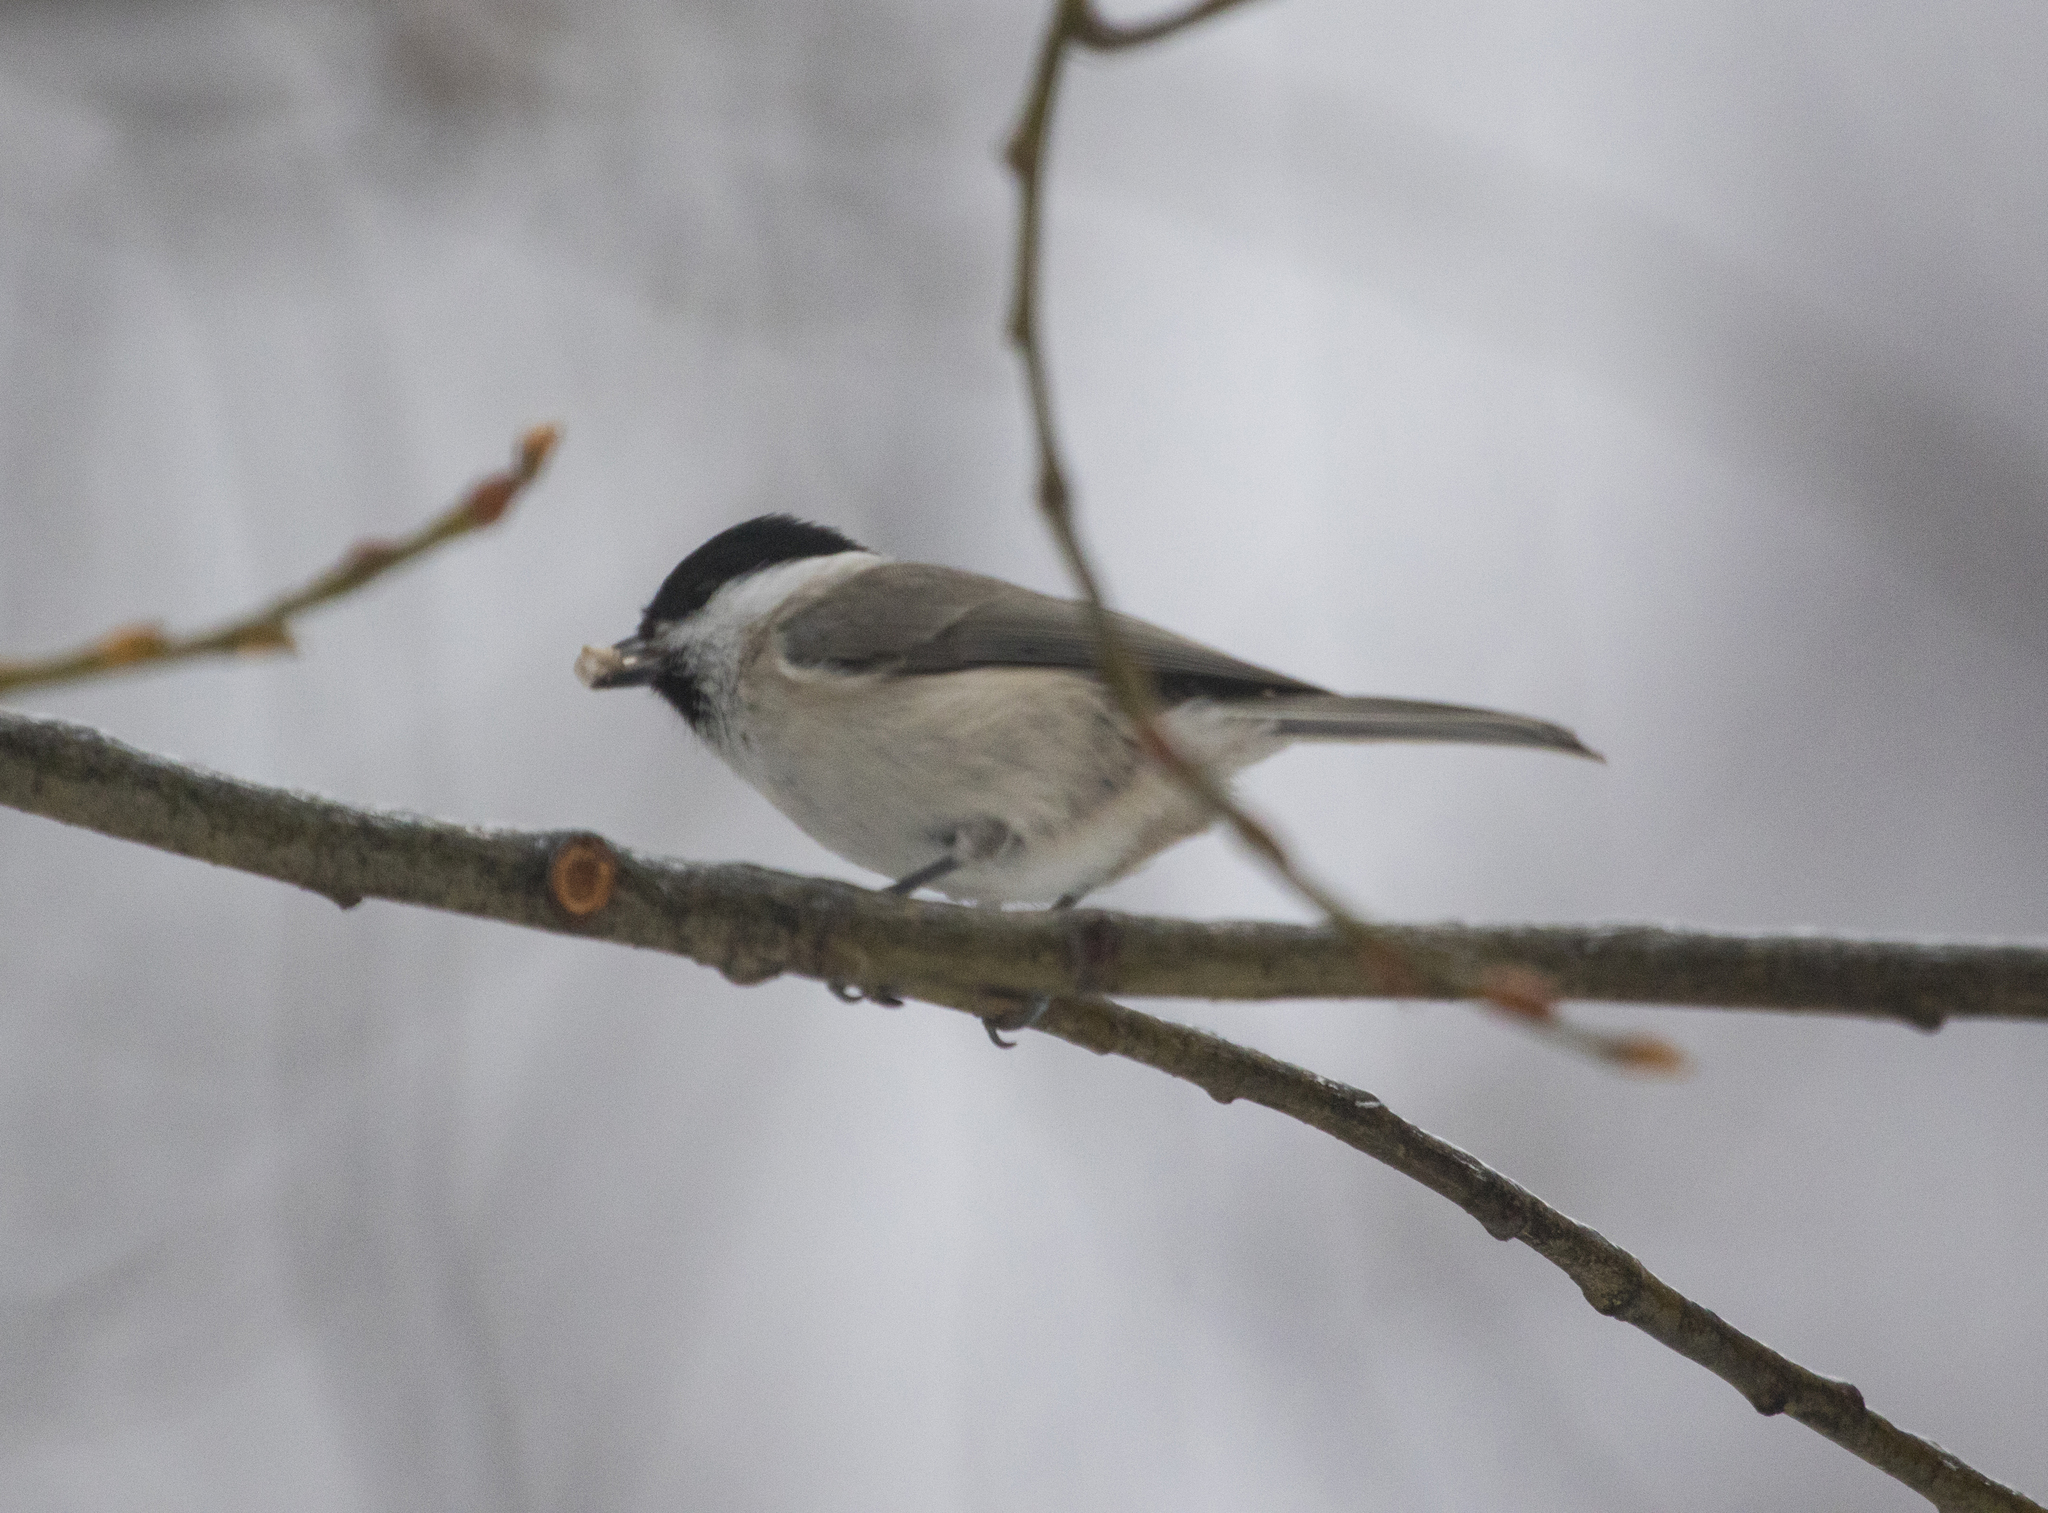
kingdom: Animalia
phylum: Chordata
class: Aves
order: Passeriformes
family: Paridae
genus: Poecile
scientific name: Poecile palustris
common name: Marsh tit
